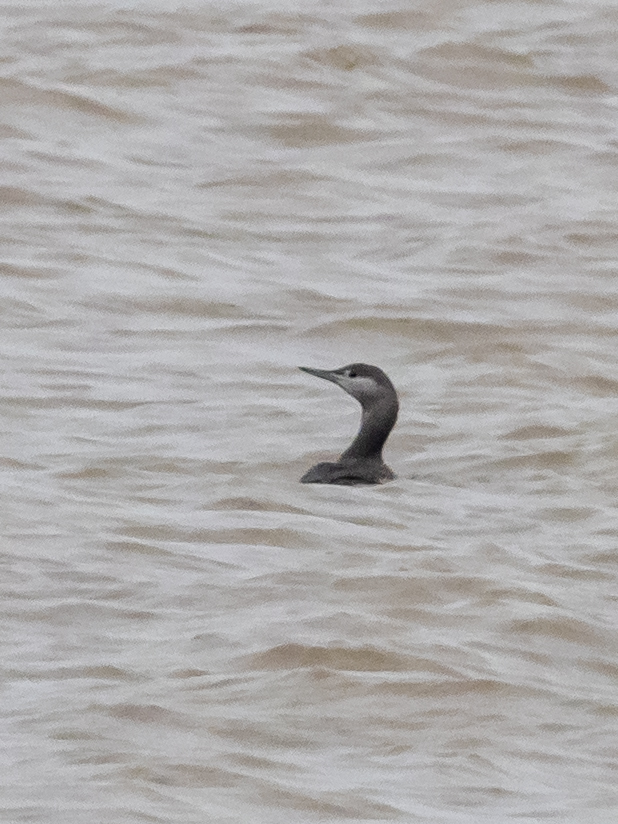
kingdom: Animalia
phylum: Chordata
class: Aves
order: Gaviiformes
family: Gaviidae
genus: Gavia
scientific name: Gavia stellata
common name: Red-throated loon
